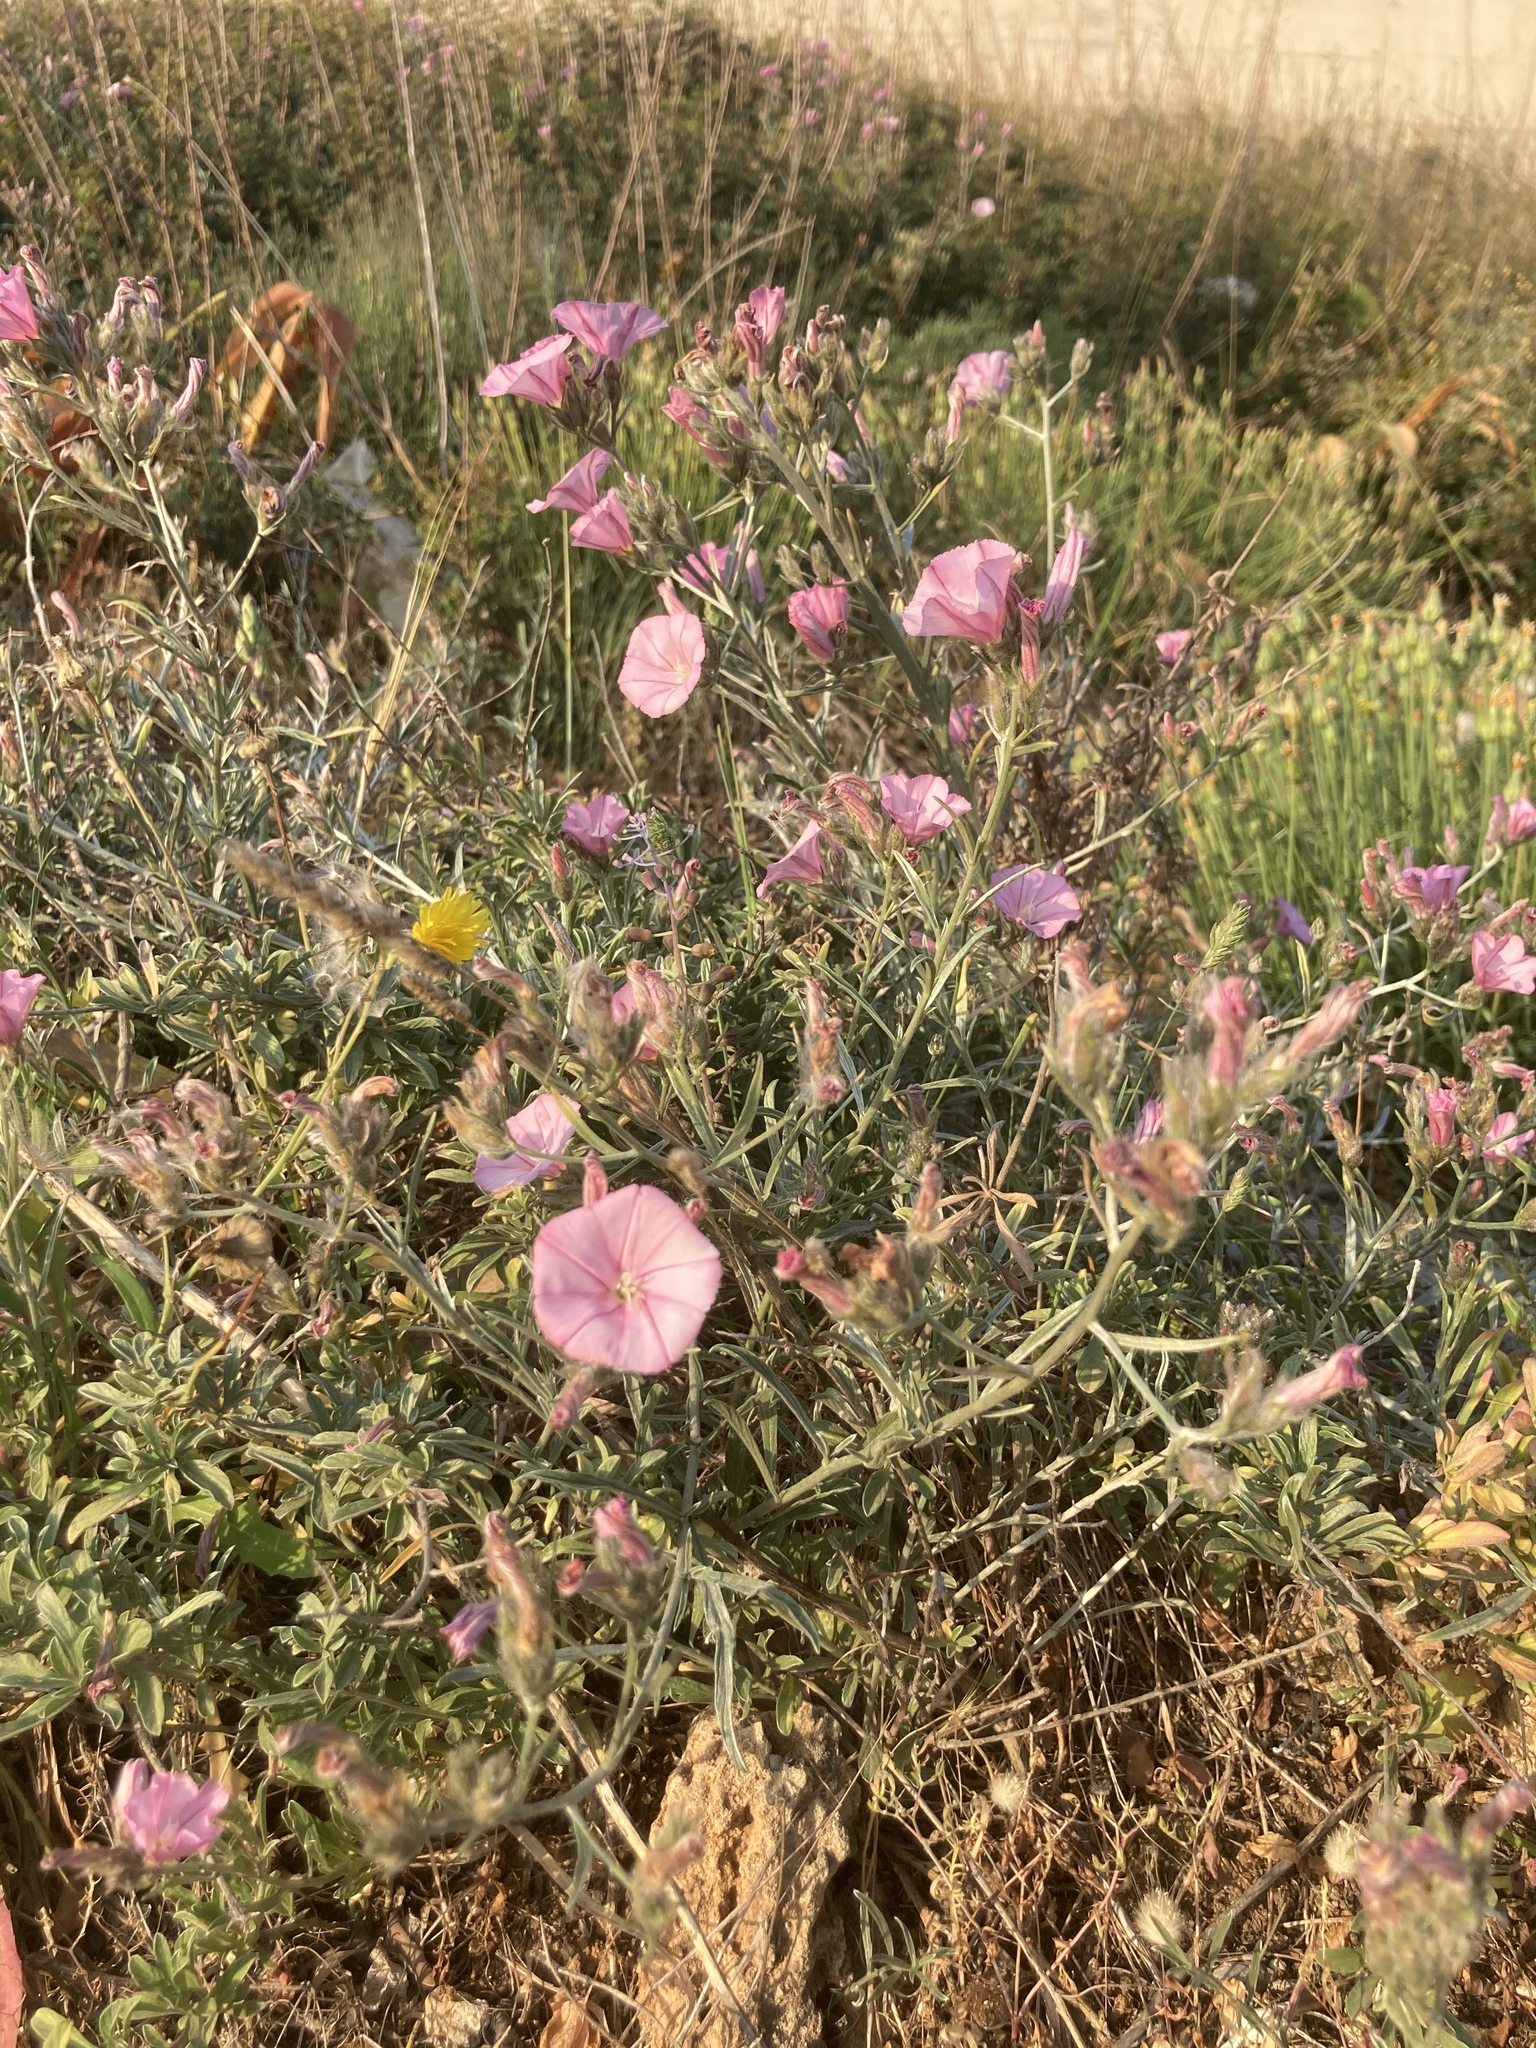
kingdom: Plantae
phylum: Tracheophyta
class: Magnoliopsida
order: Solanales
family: Convolvulaceae
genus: Convolvulus
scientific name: Convolvulus oleifolius
